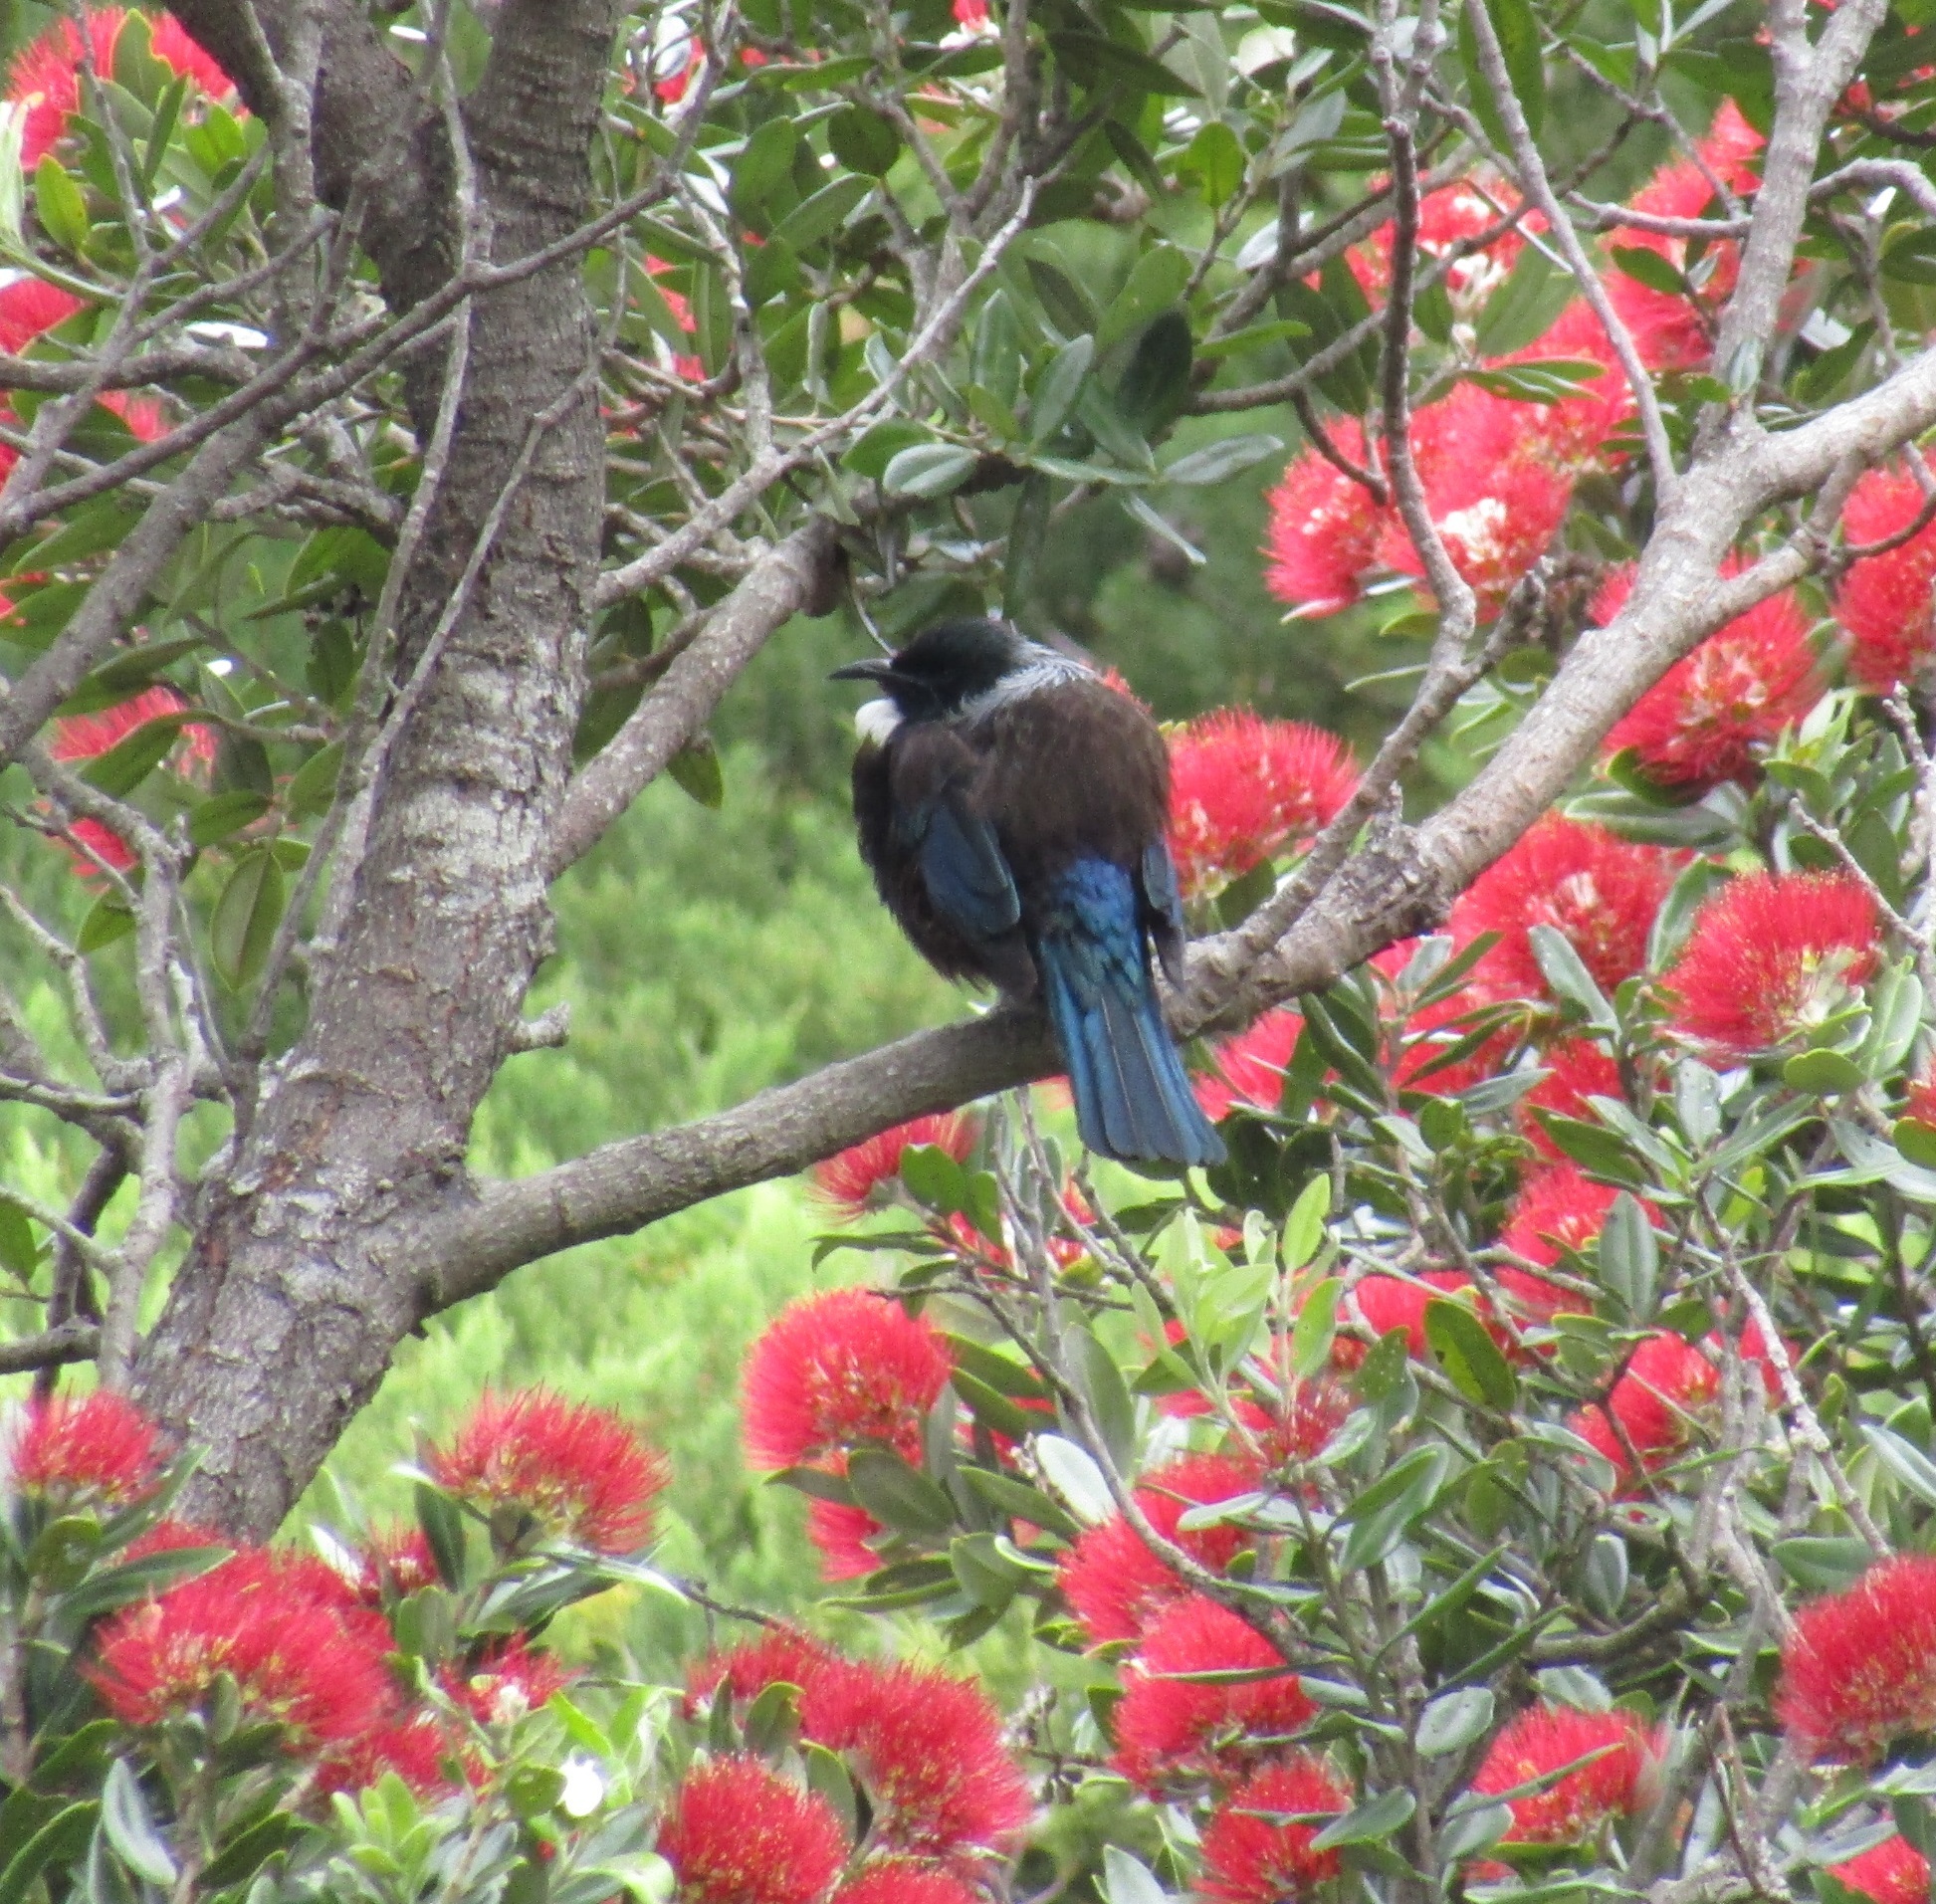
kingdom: Animalia
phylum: Chordata
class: Aves
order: Passeriformes
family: Meliphagidae
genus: Prosthemadera
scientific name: Prosthemadera novaeseelandiae
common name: Tui
